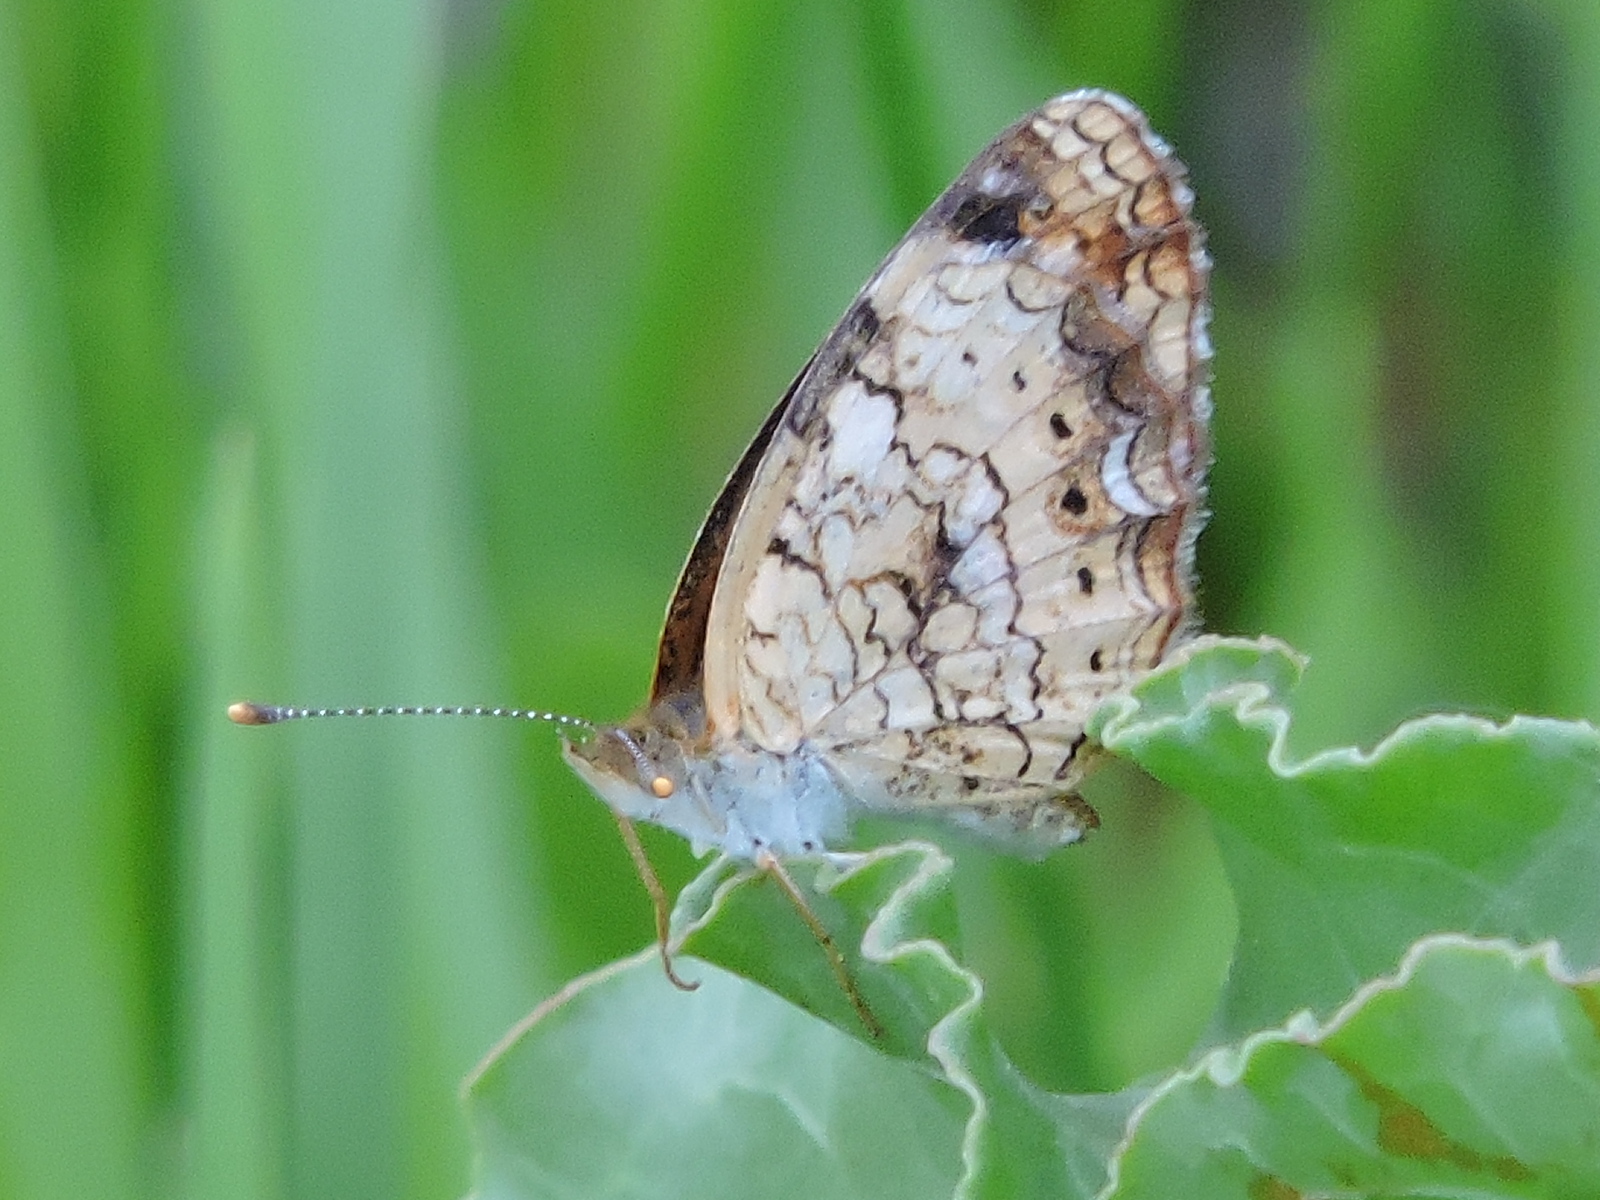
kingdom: Animalia
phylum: Arthropoda
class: Insecta
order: Lepidoptera
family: Nymphalidae
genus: Phyciodes
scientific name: Phyciodes tharos
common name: Pearl crescent
